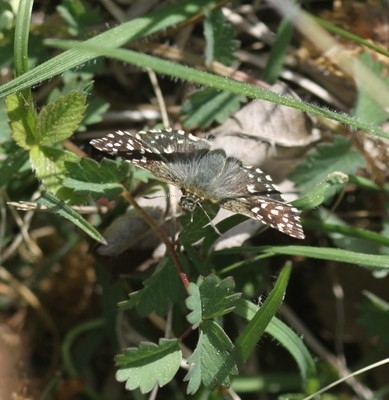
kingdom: Animalia
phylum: Arthropoda
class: Insecta
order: Lepidoptera
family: Hesperiidae
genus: Pyrgus
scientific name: Pyrgus malvae
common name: Grizzled skipper
